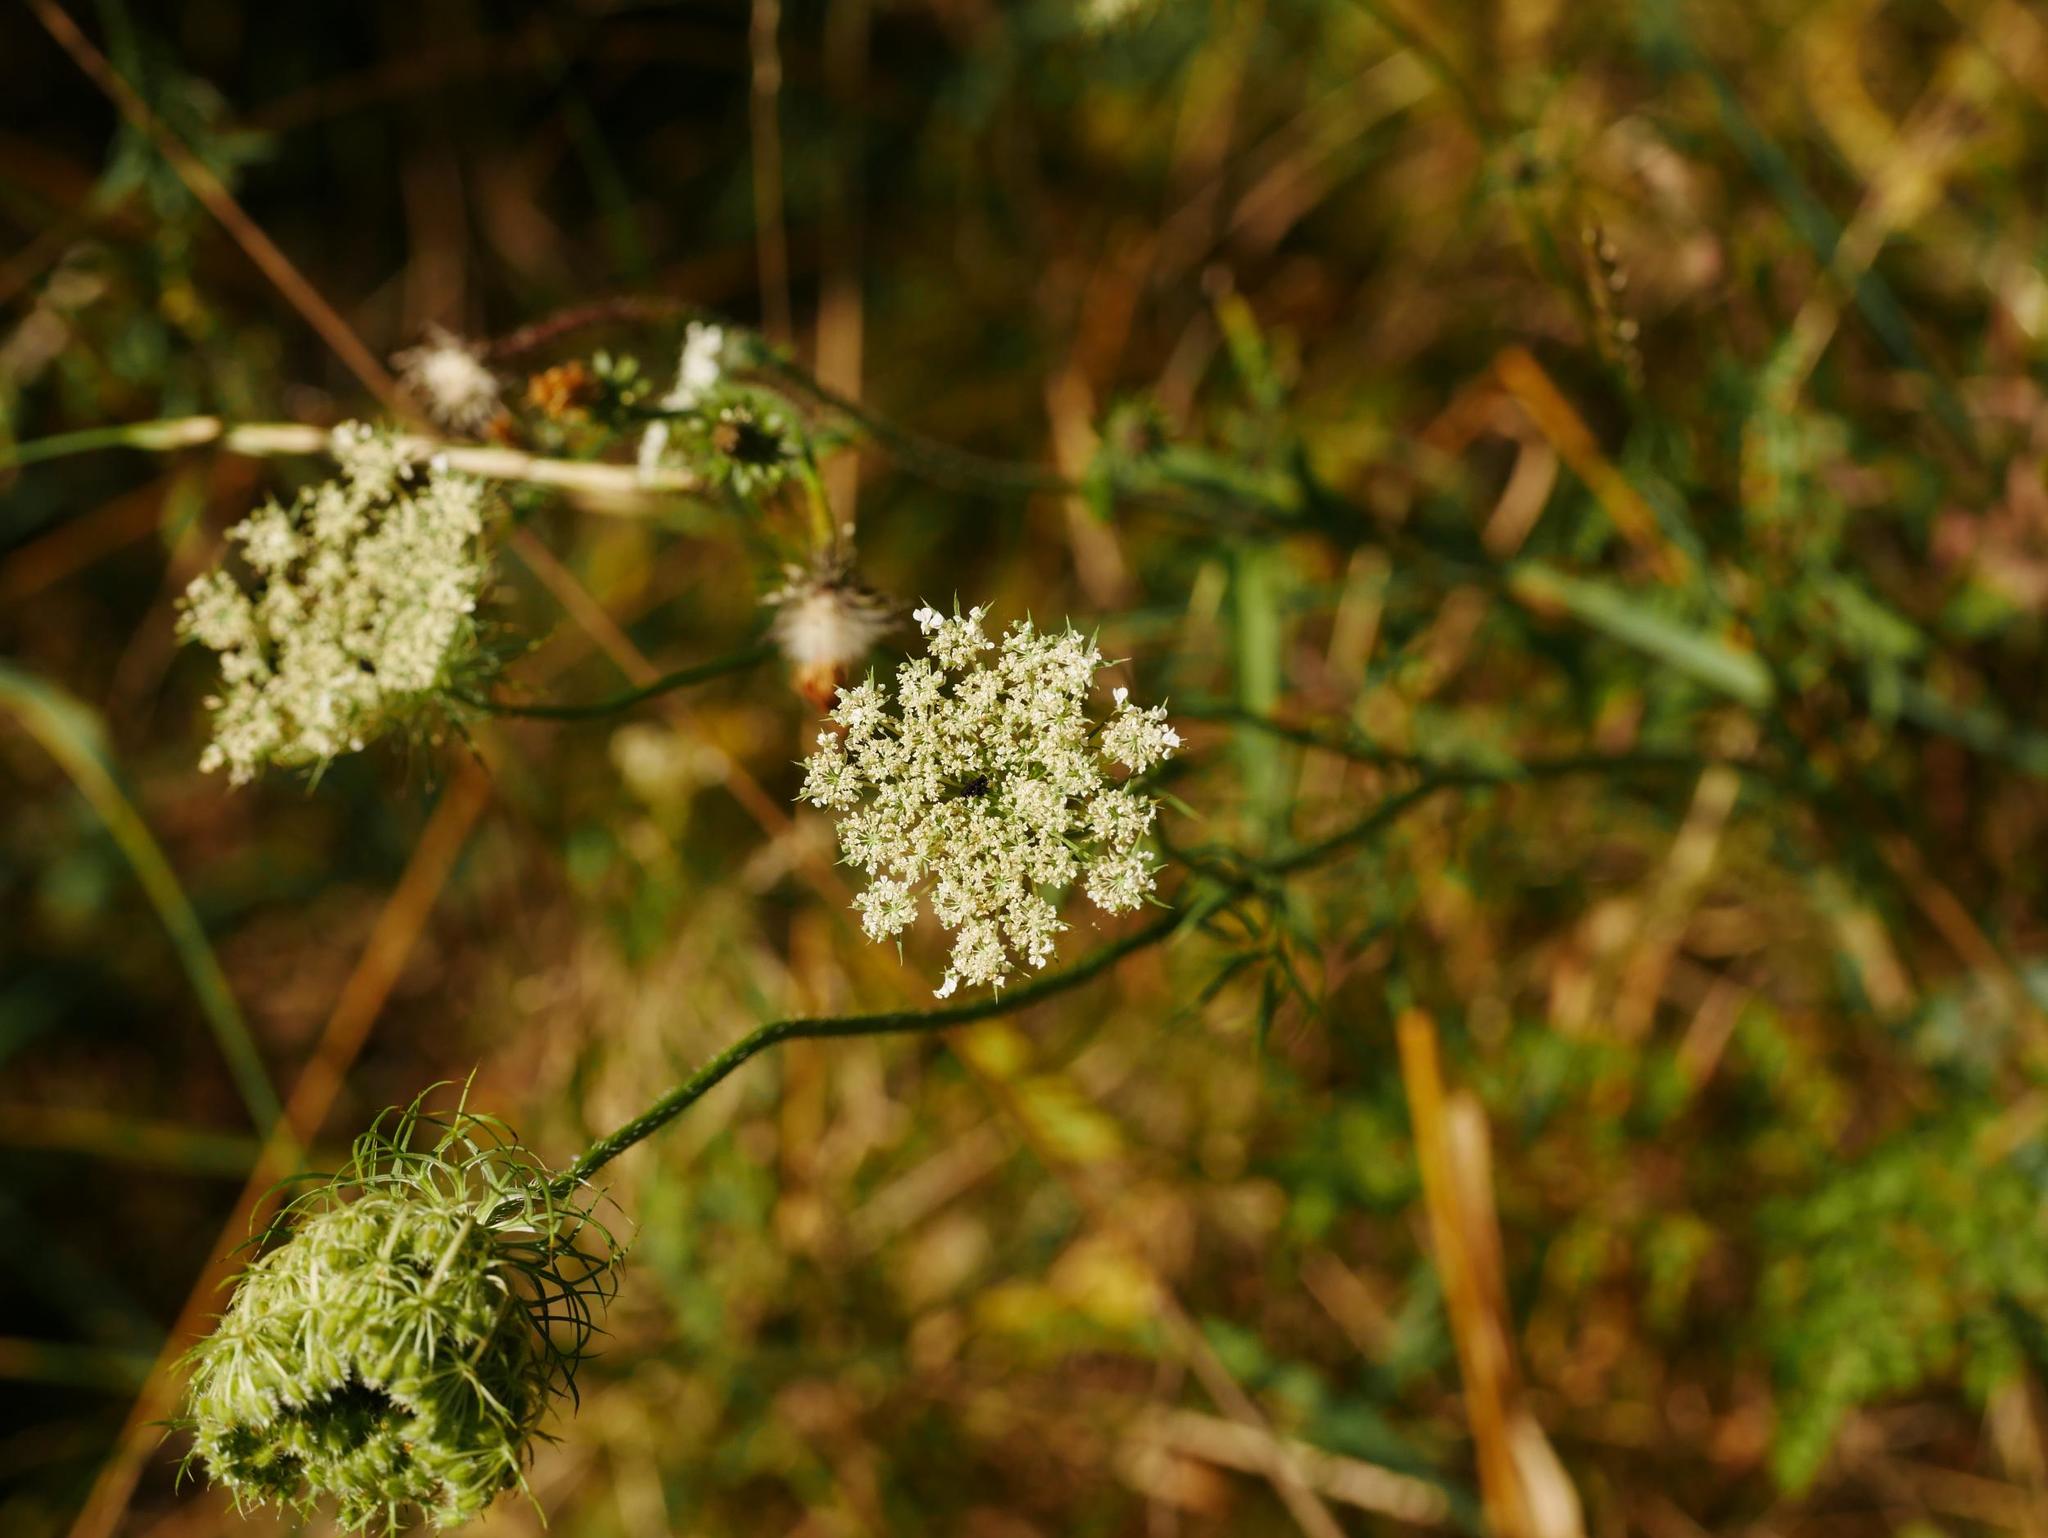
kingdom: Plantae
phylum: Tracheophyta
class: Magnoliopsida
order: Apiales
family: Apiaceae
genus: Daucus
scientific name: Daucus carota
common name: Wild carrot
